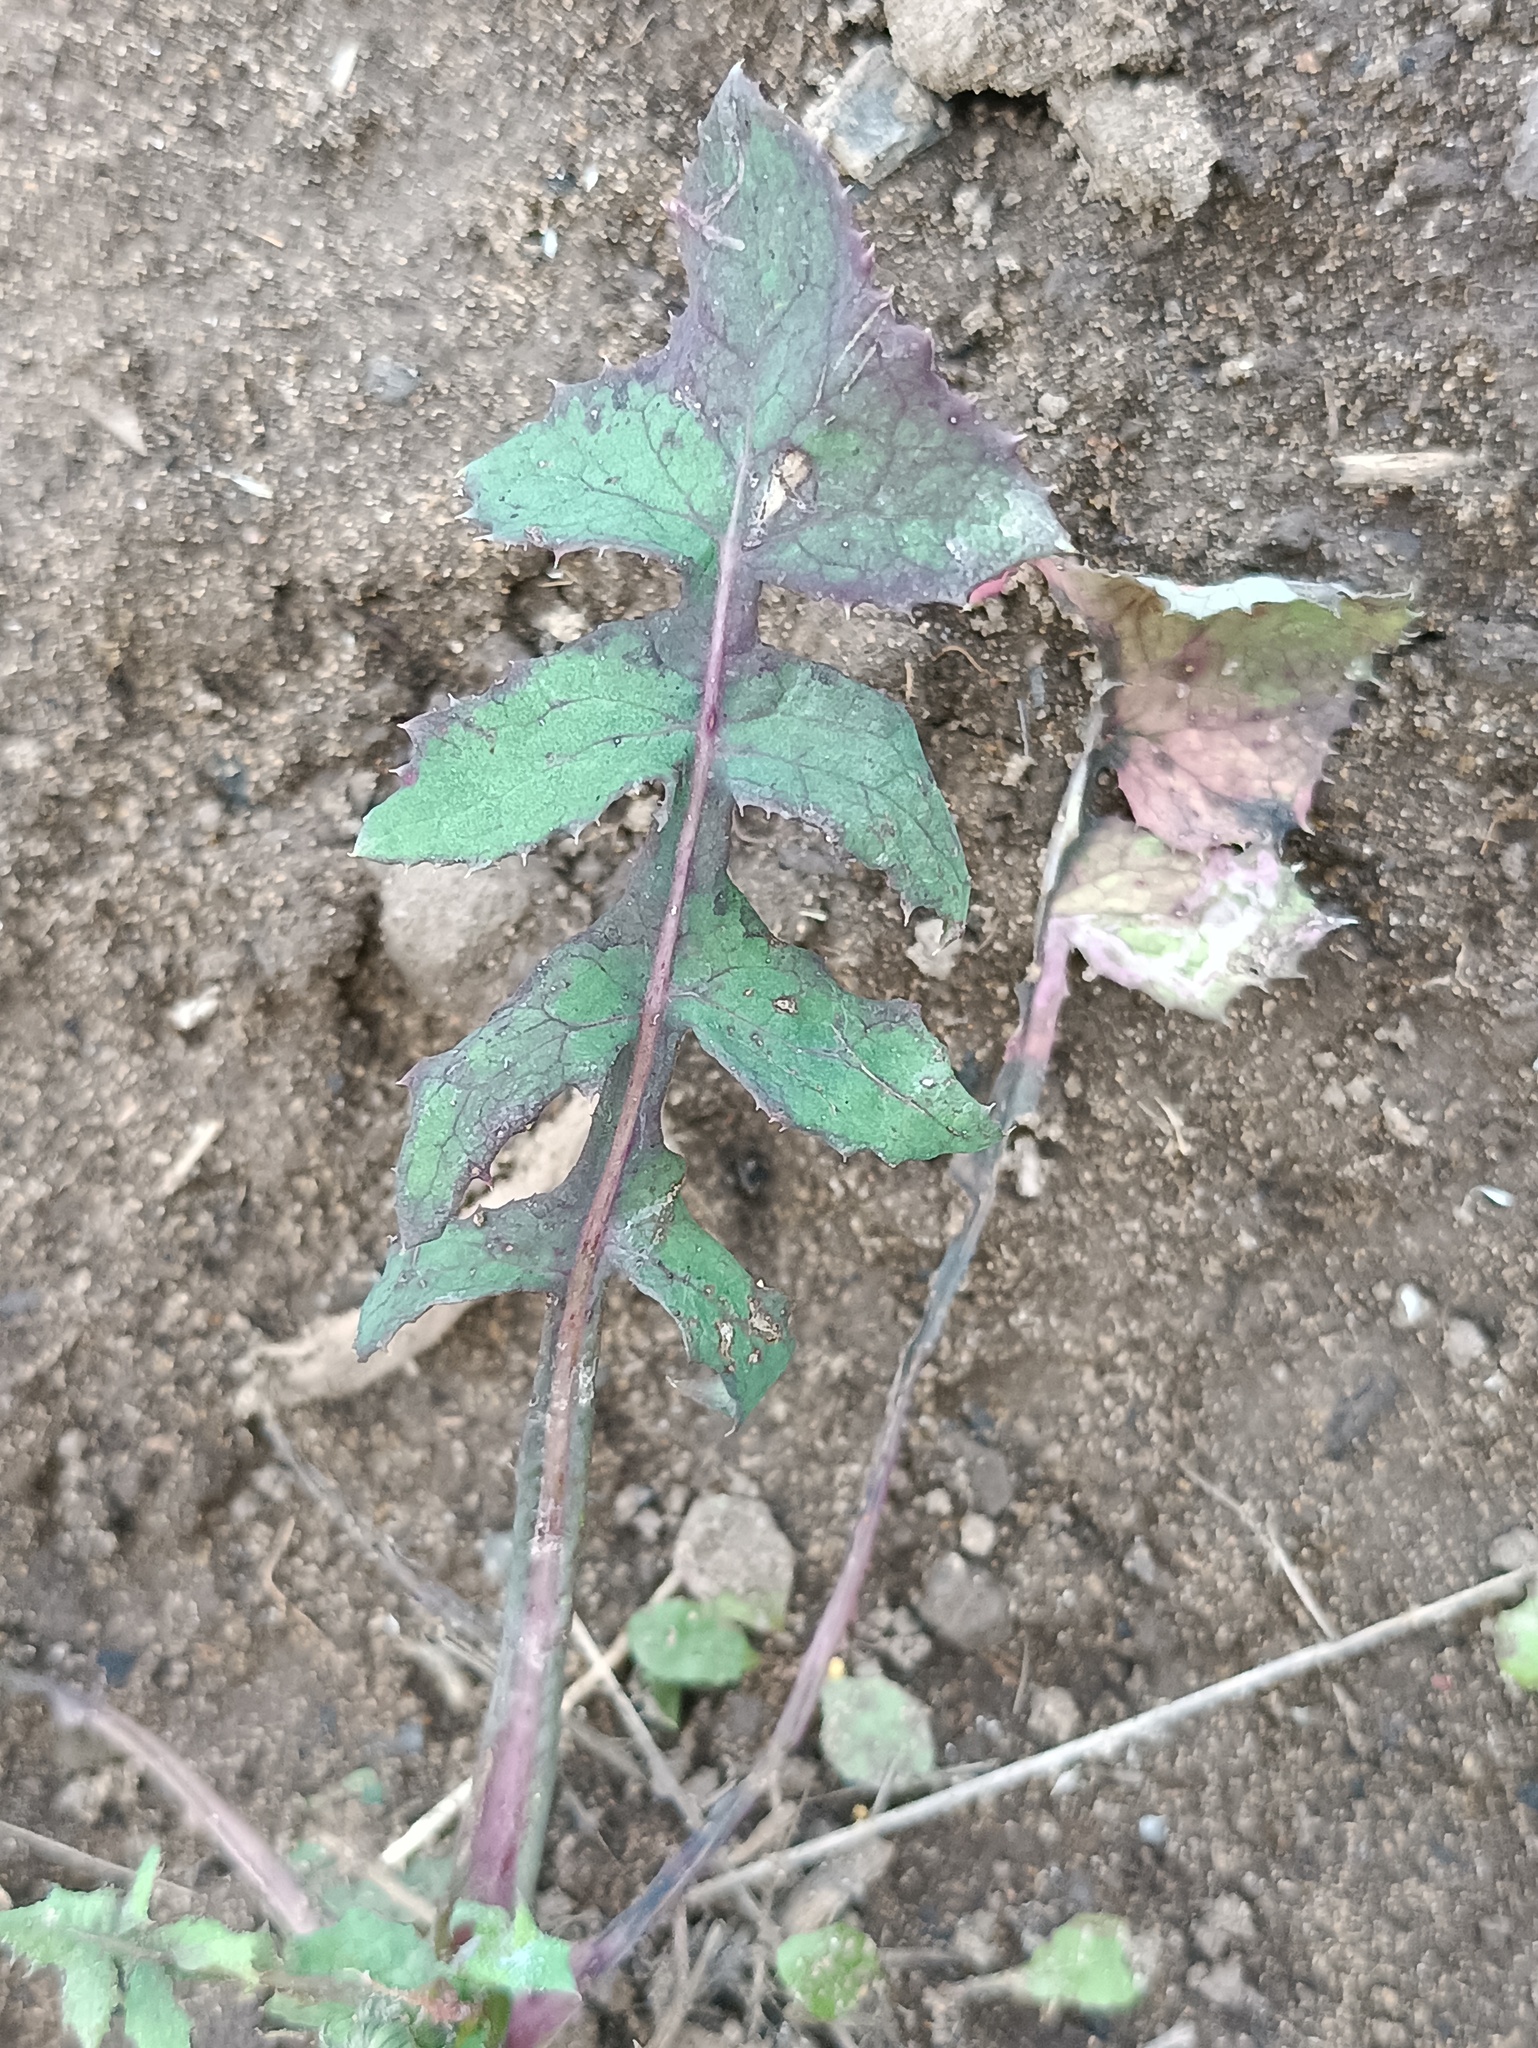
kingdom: Plantae
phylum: Tracheophyta
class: Magnoliopsida
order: Asterales
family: Asteraceae
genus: Sonchus
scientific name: Sonchus oleraceus
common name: Common sowthistle
